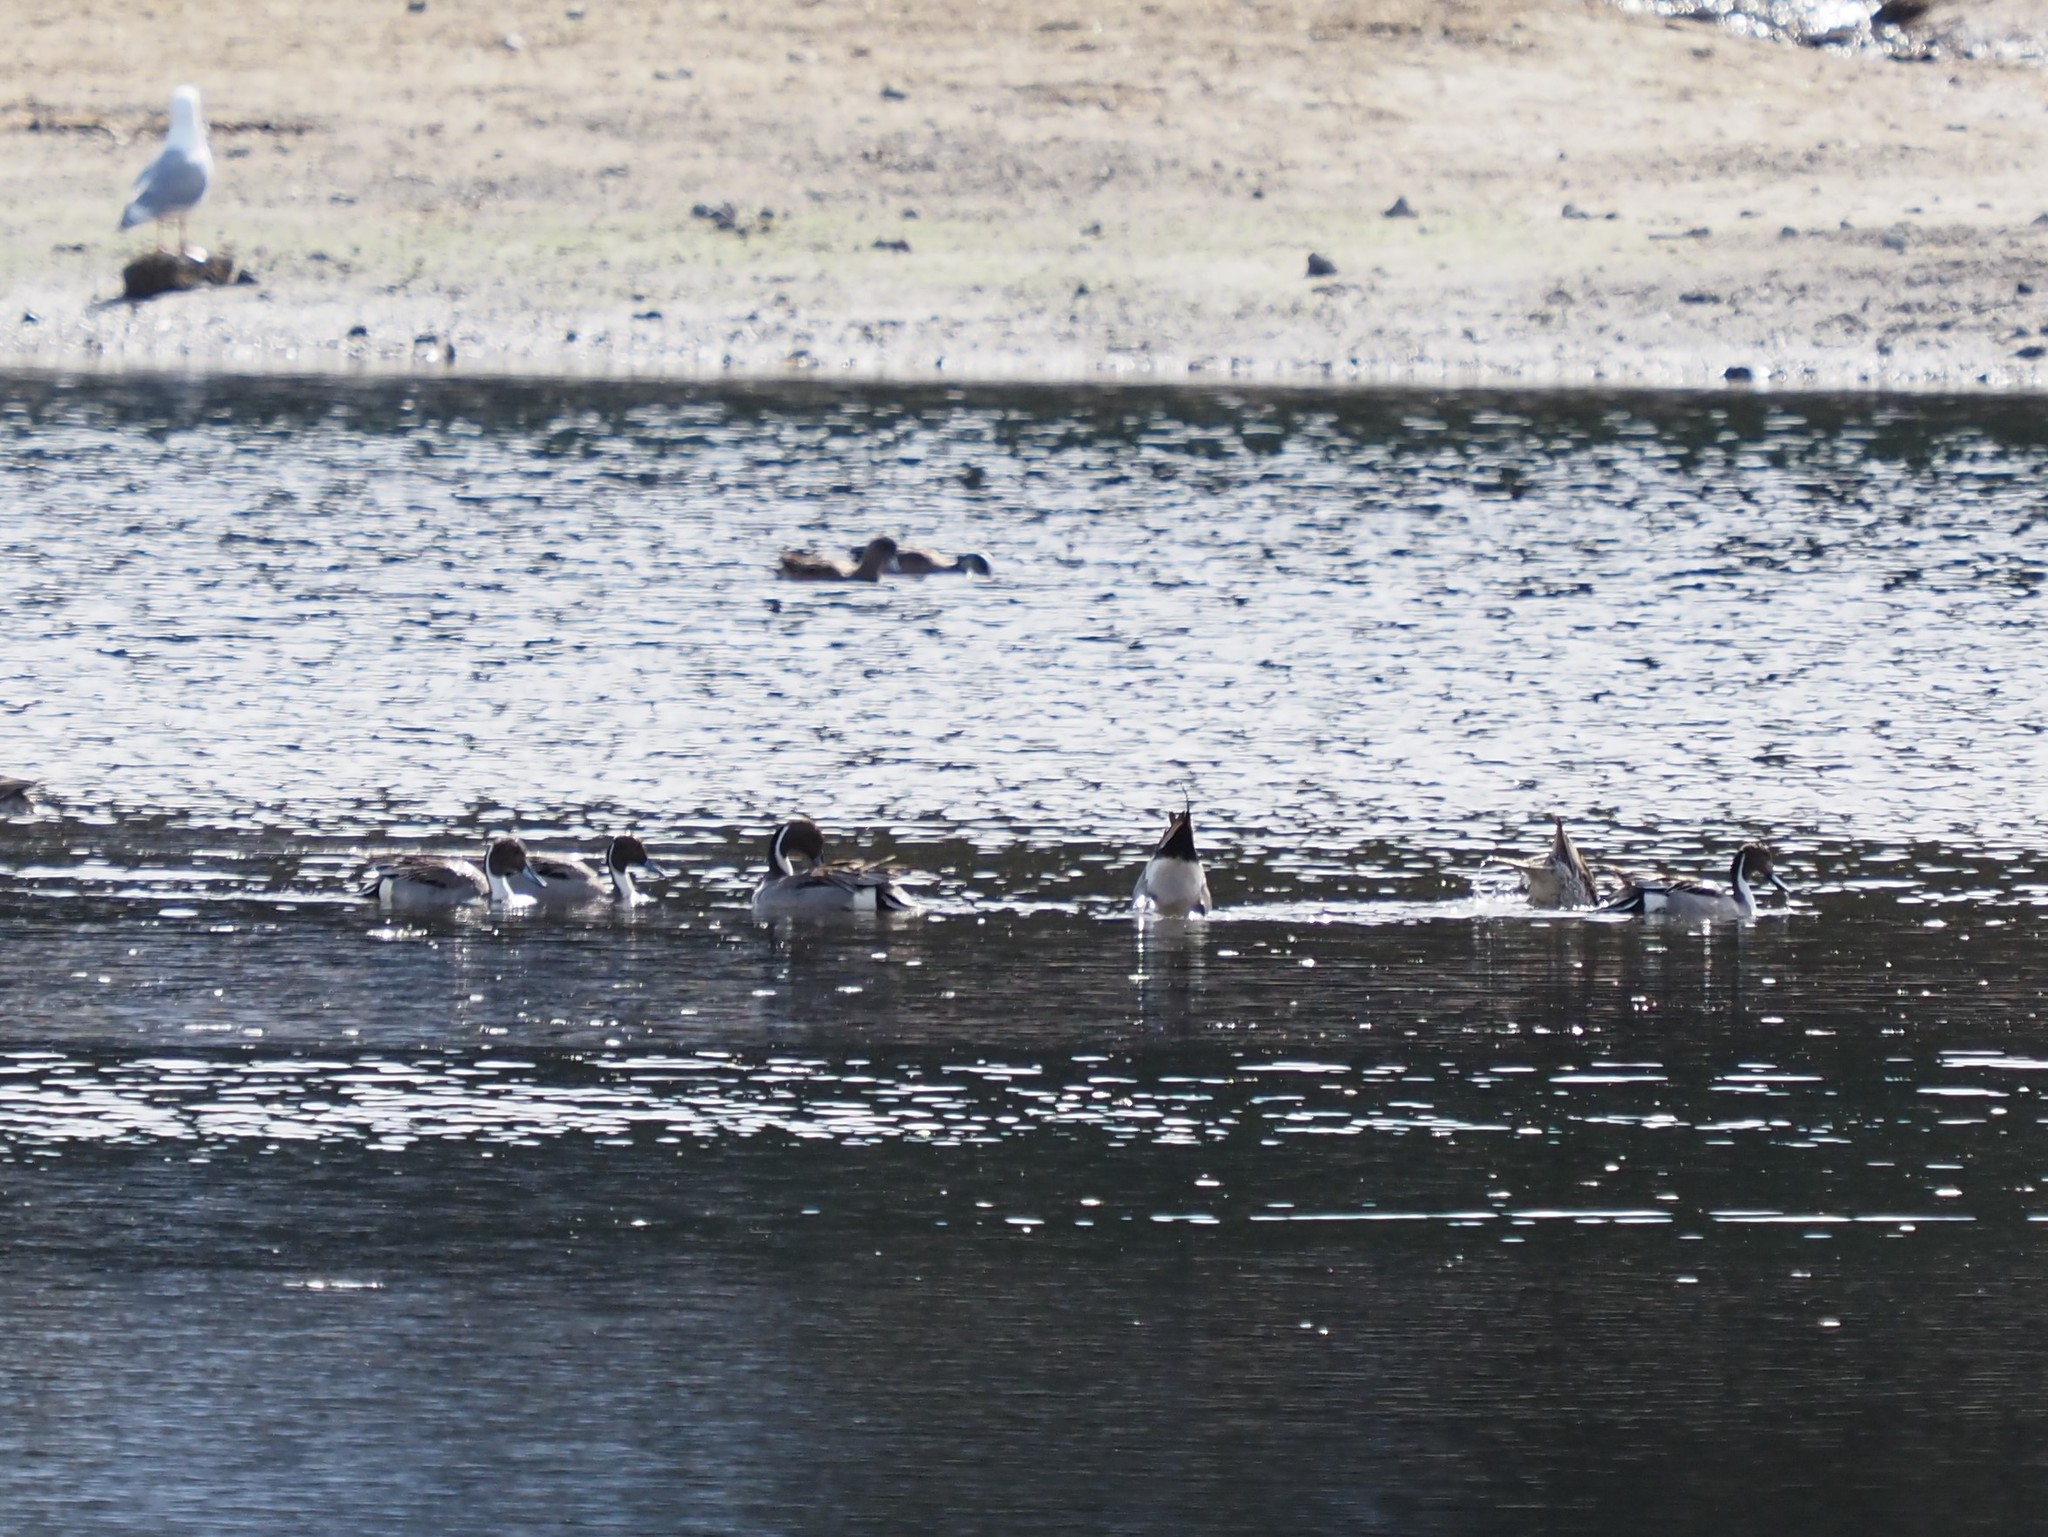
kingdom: Animalia
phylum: Chordata
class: Aves
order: Anseriformes
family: Anatidae
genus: Anas
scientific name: Anas acuta
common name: Northern pintail
